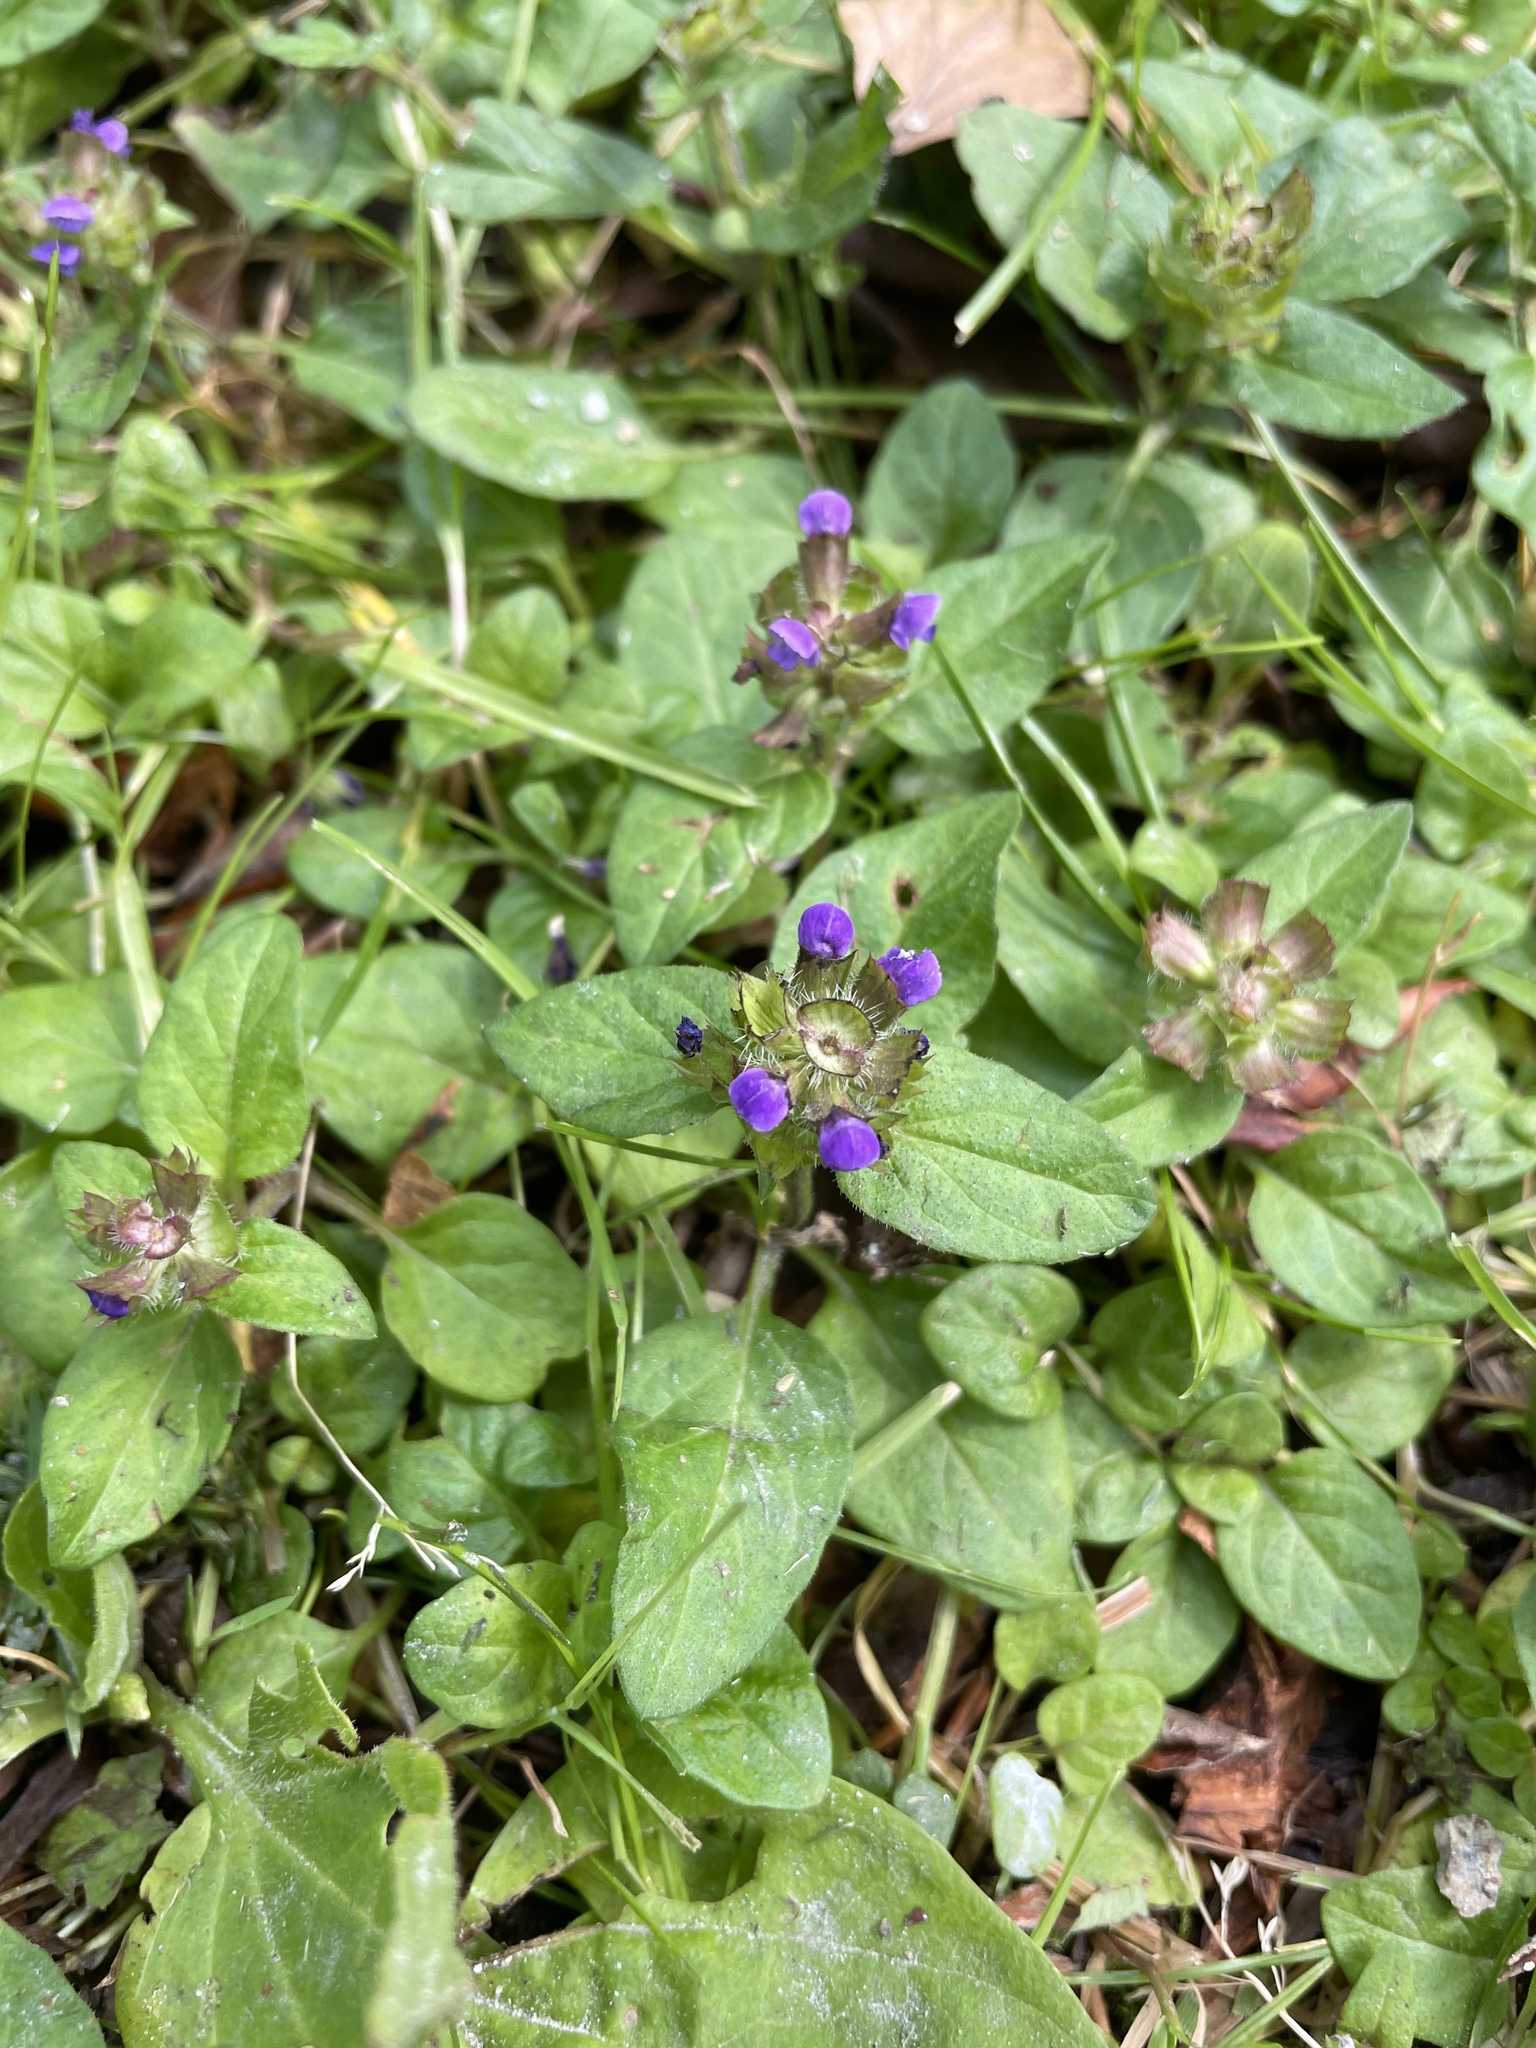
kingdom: Plantae
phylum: Tracheophyta
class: Magnoliopsida
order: Lamiales
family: Lamiaceae
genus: Prunella
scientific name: Prunella vulgaris
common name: Heal-all
